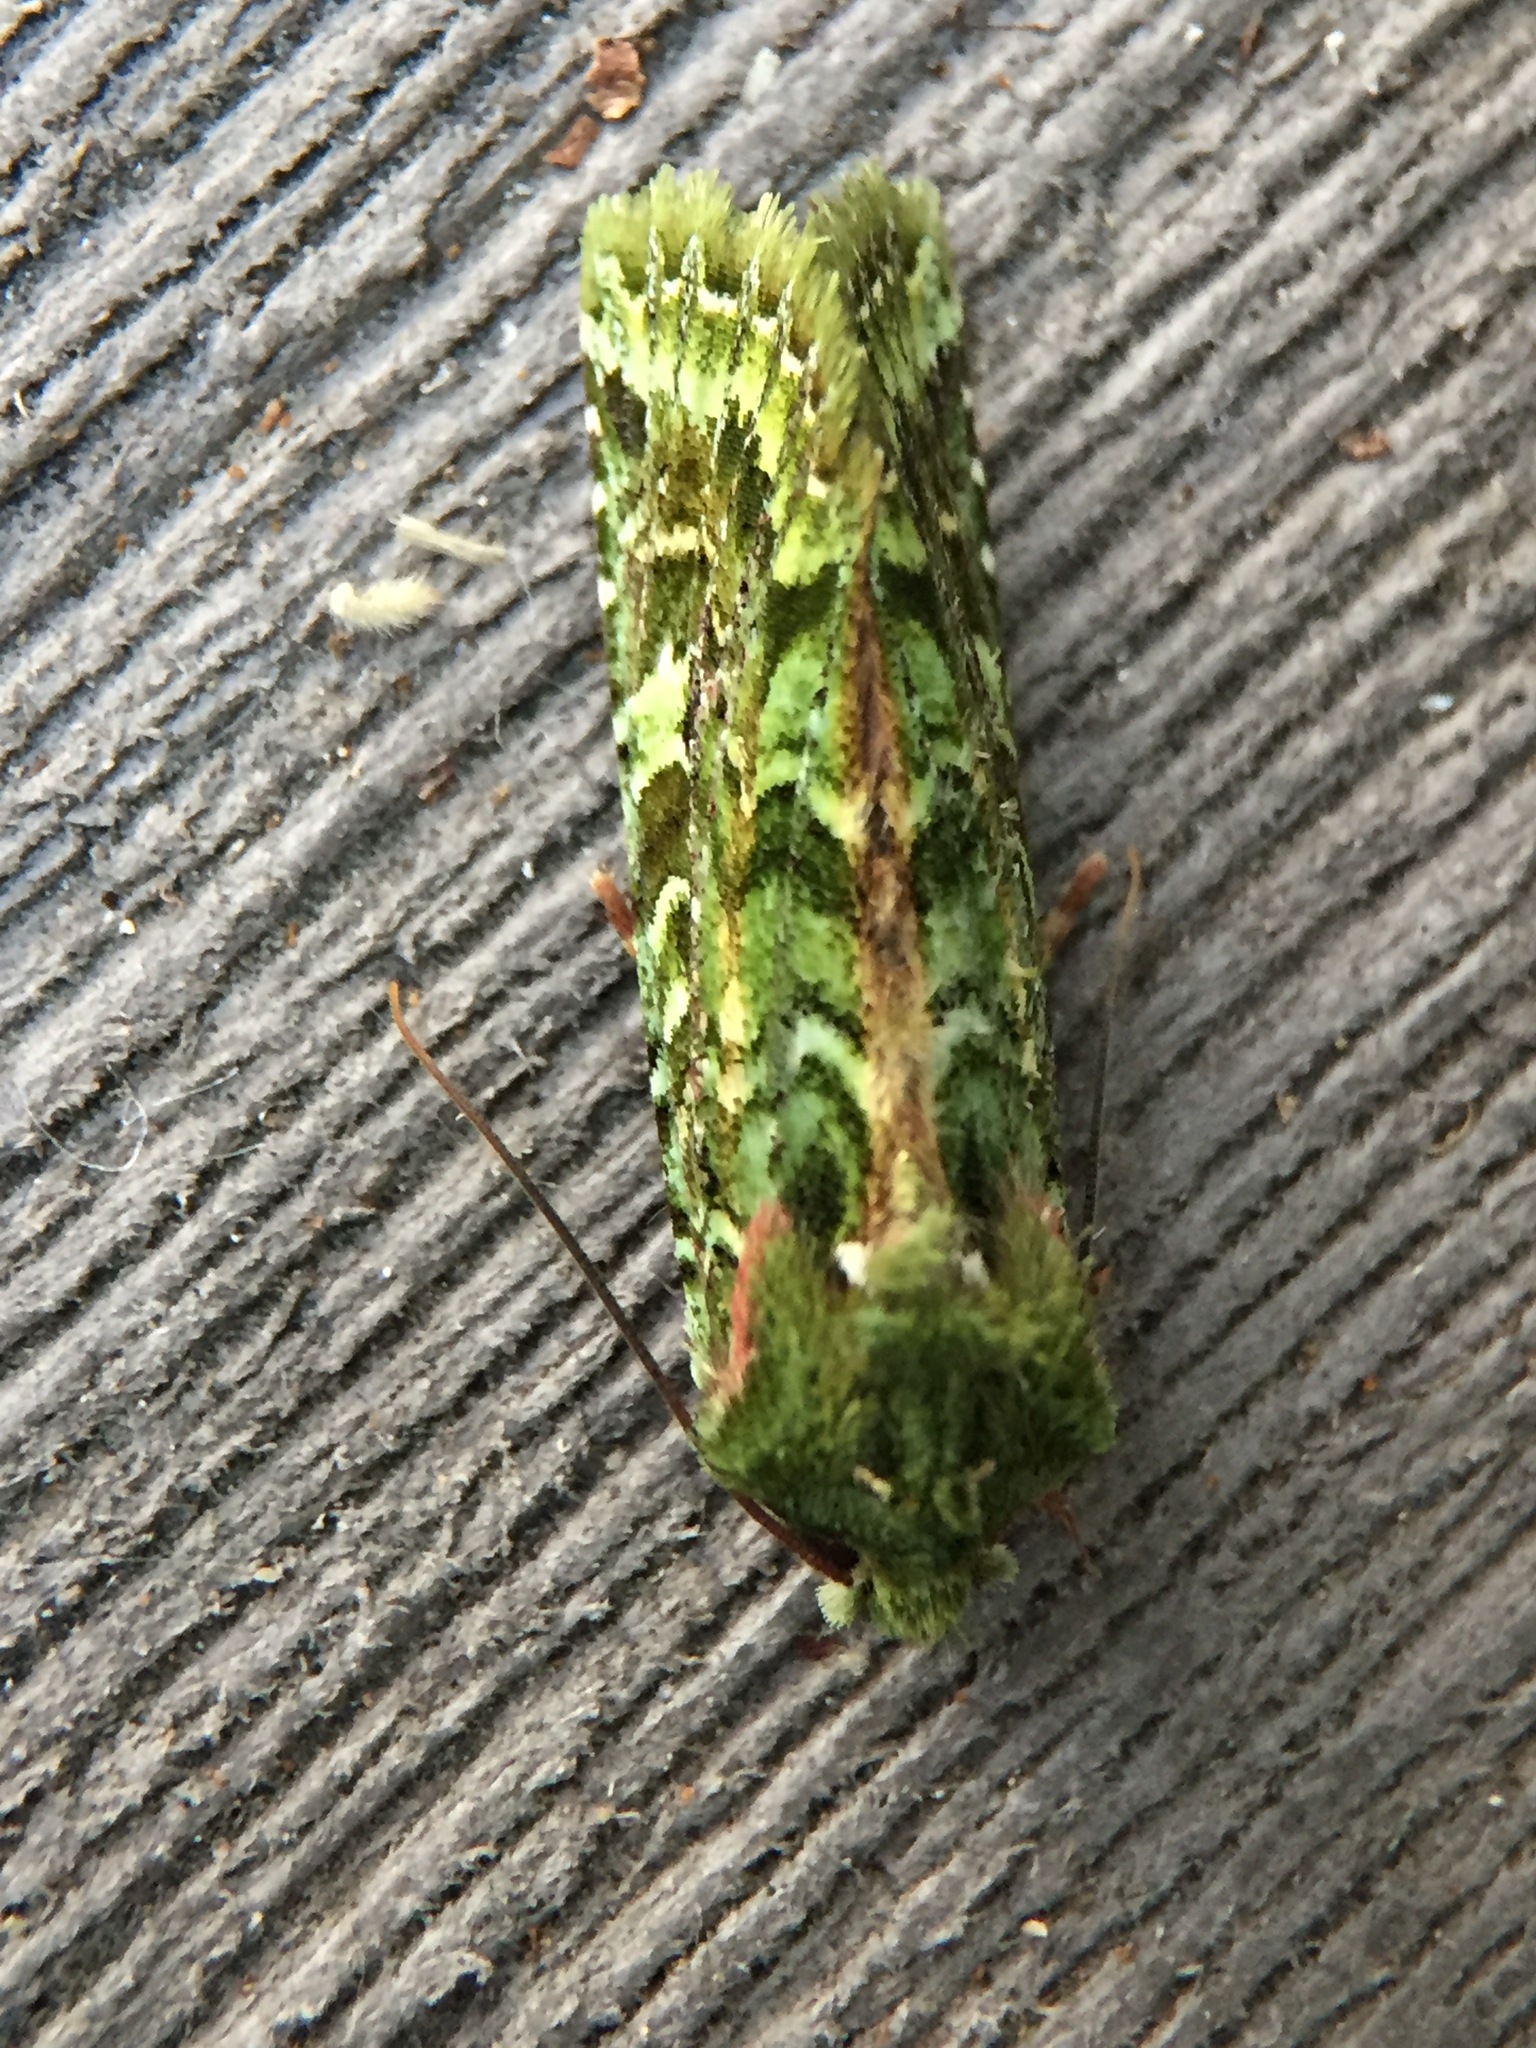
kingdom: Animalia
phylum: Arthropoda
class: Insecta
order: Lepidoptera
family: Noctuidae
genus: Feredayia
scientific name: Feredayia grammosa
